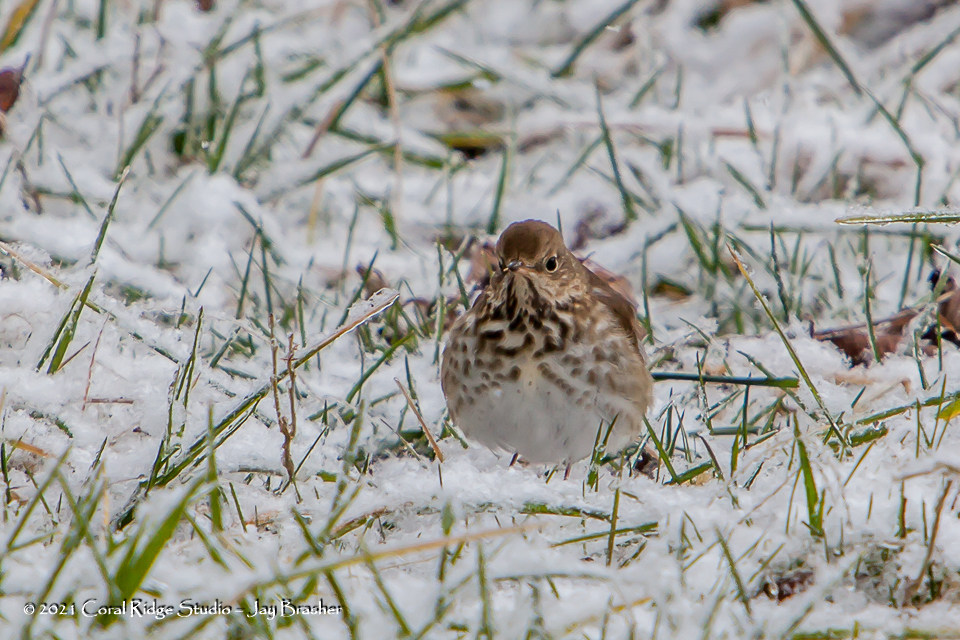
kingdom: Animalia
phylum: Chordata
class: Aves
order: Passeriformes
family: Turdidae
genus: Catharus
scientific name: Catharus guttatus
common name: Hermit thrush
